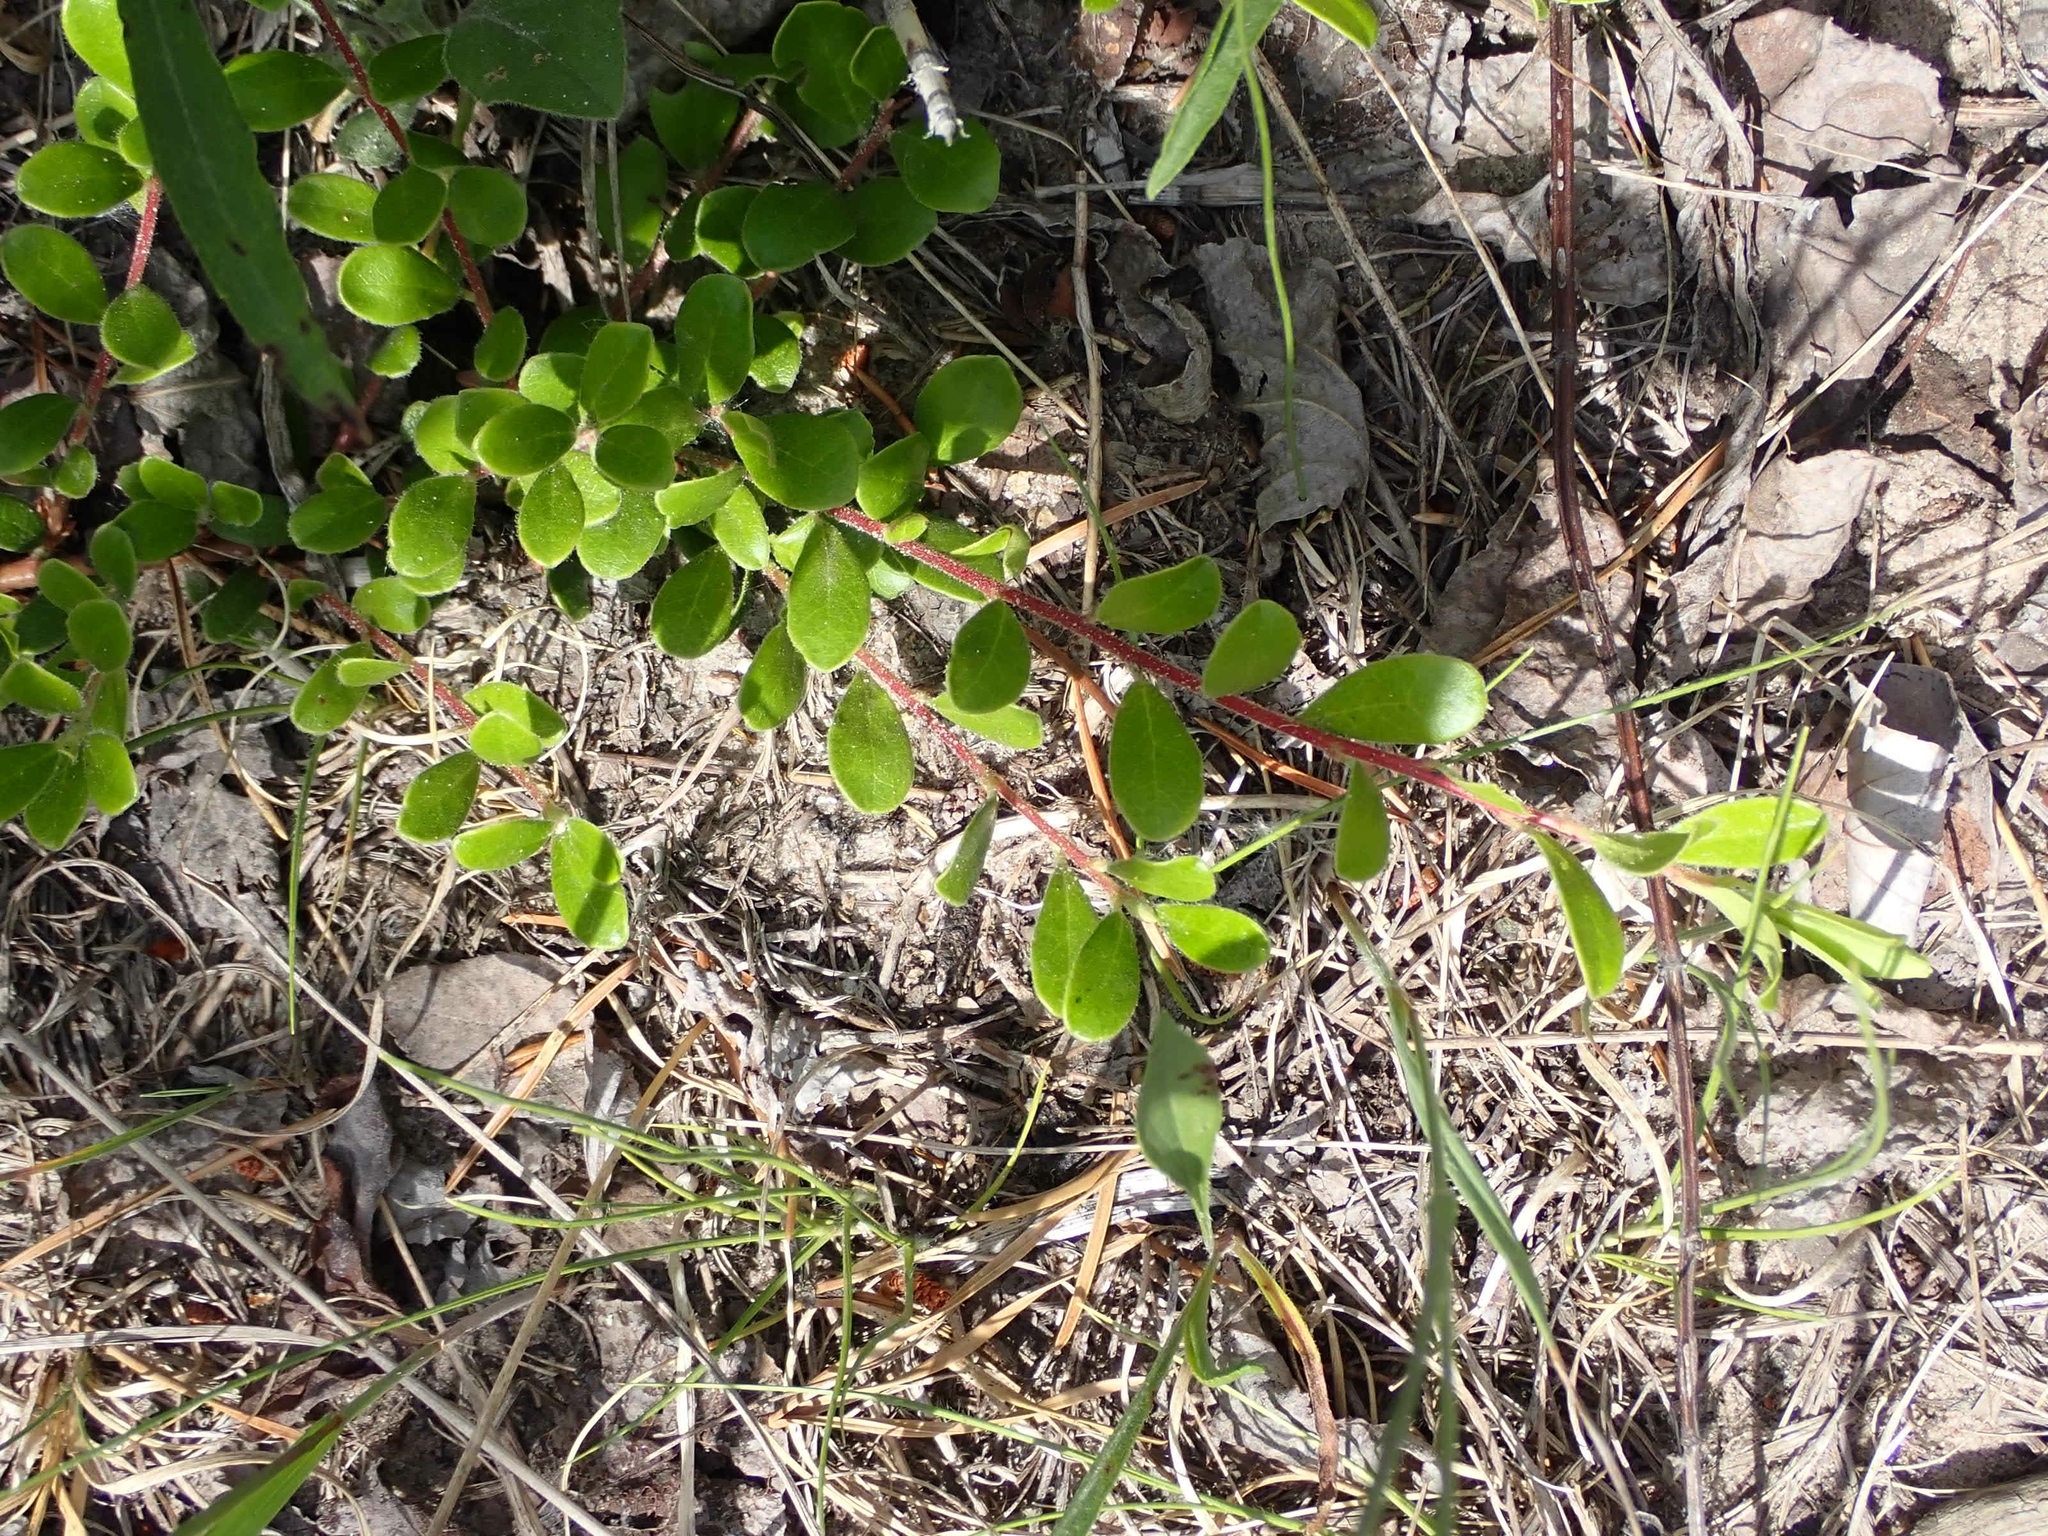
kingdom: Plantae
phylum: Tracheophyta
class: Magnoliopsida
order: Ericales
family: Ericaceae
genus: Arctostaphylos
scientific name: Arctostaphylos uva-ursi
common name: Bearberry
